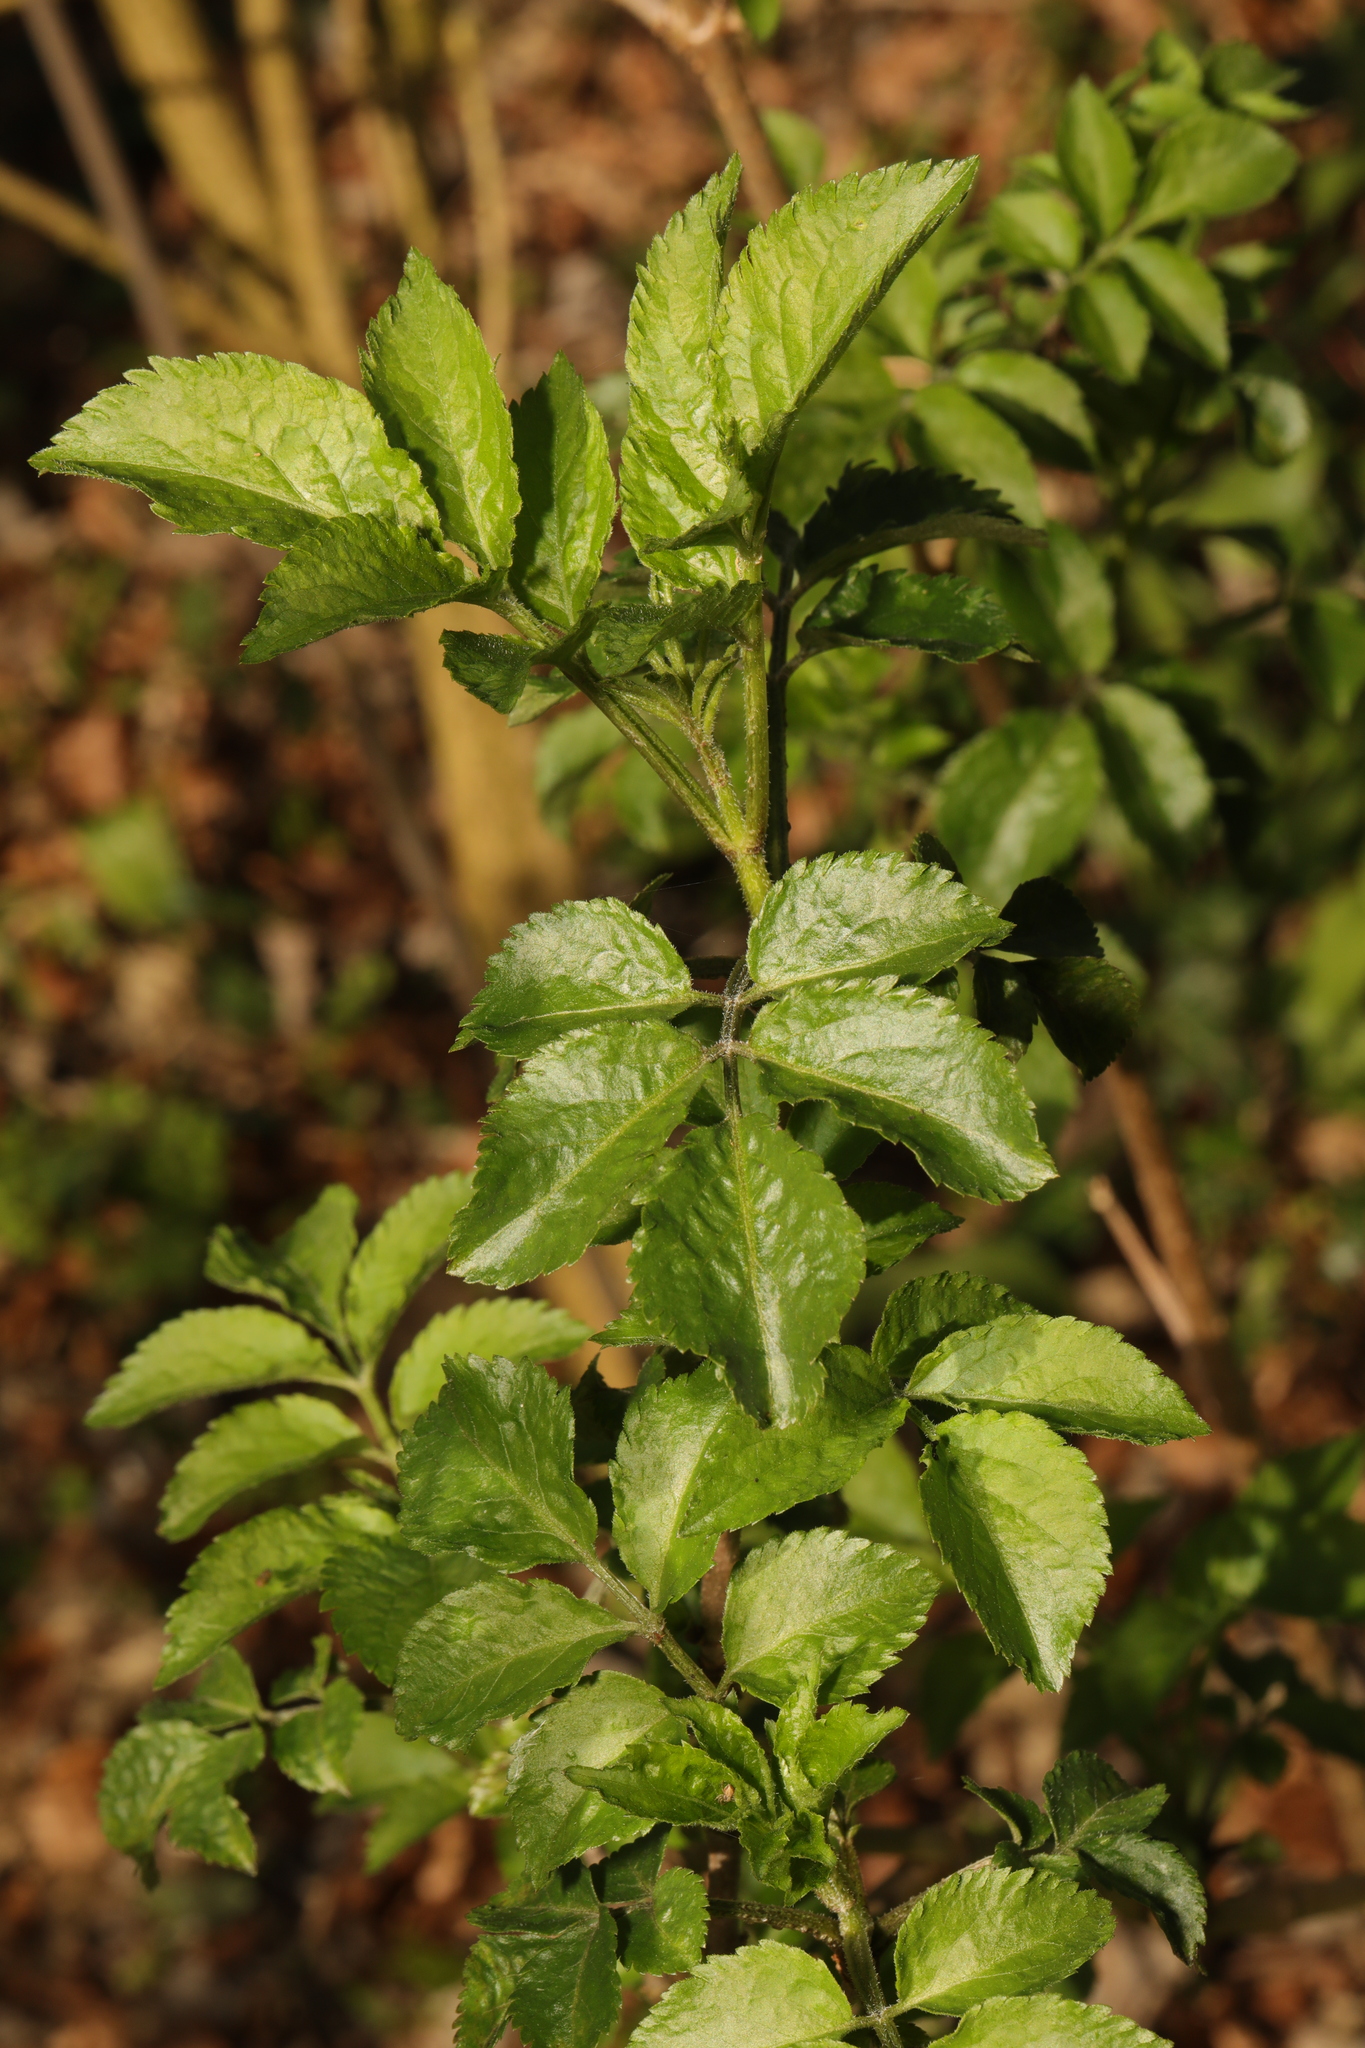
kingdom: Plantae
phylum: Tracheophyta
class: Magnoliopsida
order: Dipsacales
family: Viburnaceae
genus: Sambucus
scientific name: Sambucus nigra
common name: Elder
